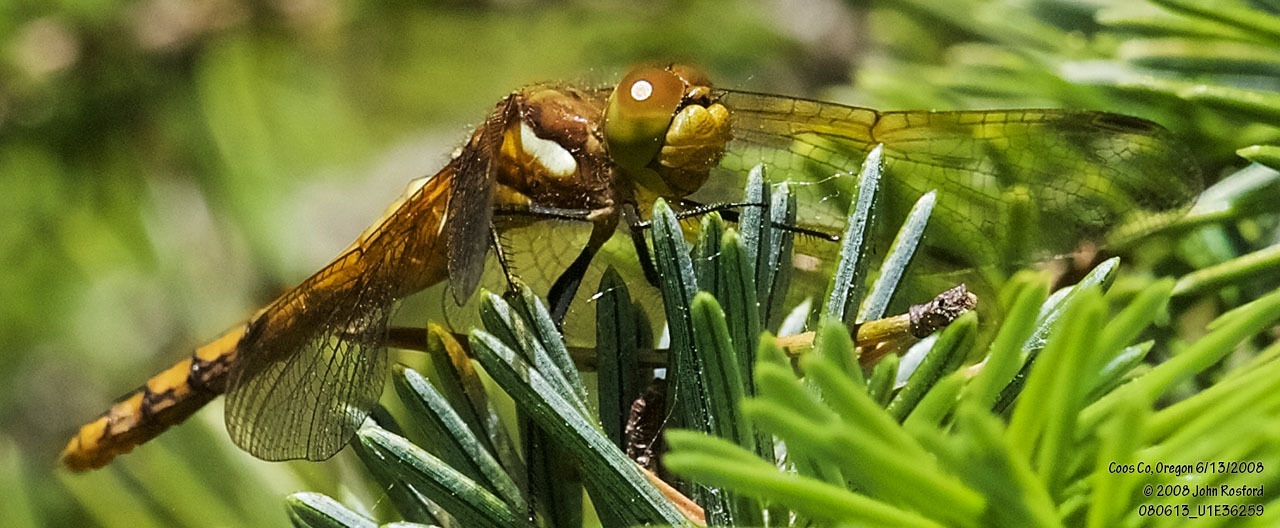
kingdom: Animalia
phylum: Arthropoda
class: Insecta
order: Odonata
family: Libellulidae
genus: Sympetrum
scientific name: Sympetrum madidum
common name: Red-veined meadowhawk
